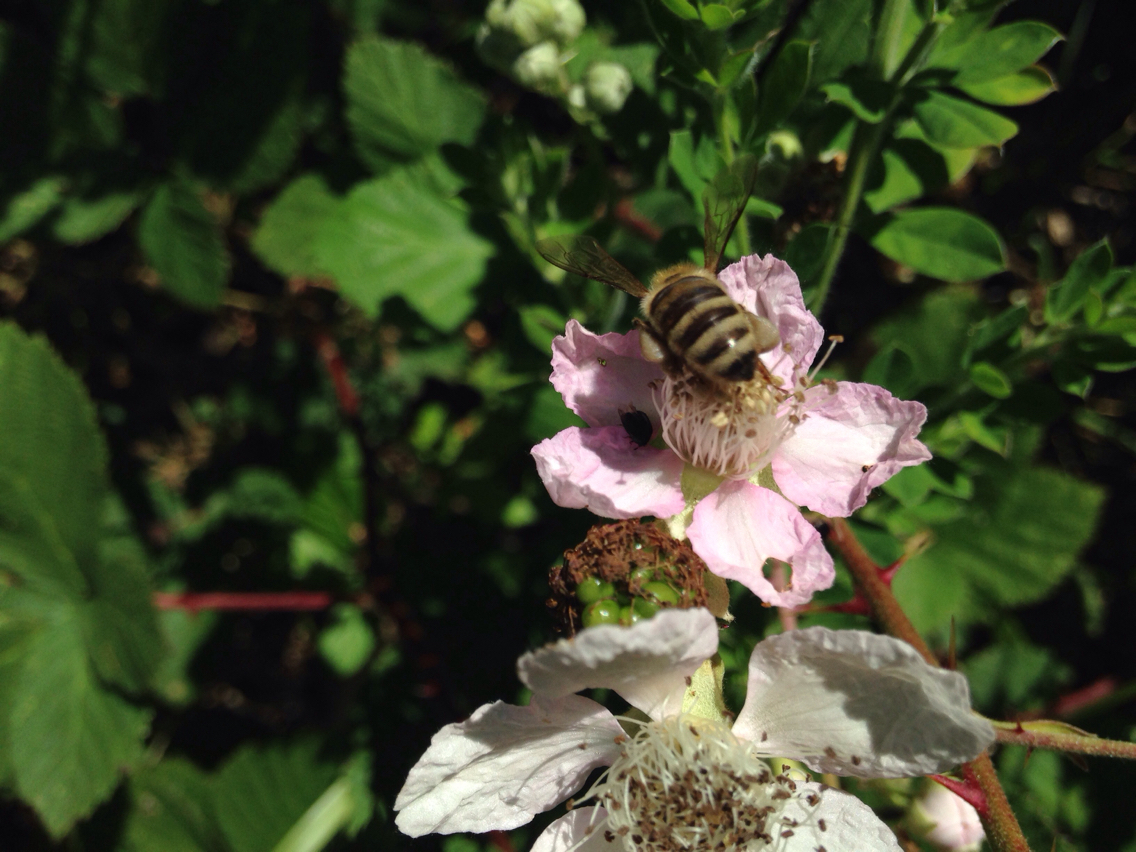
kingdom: Animalia
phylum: Arthropoda
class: Insecta
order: Hymenoptera
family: Apidae
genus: Apis
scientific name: Apis mellifera
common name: Honey bee
